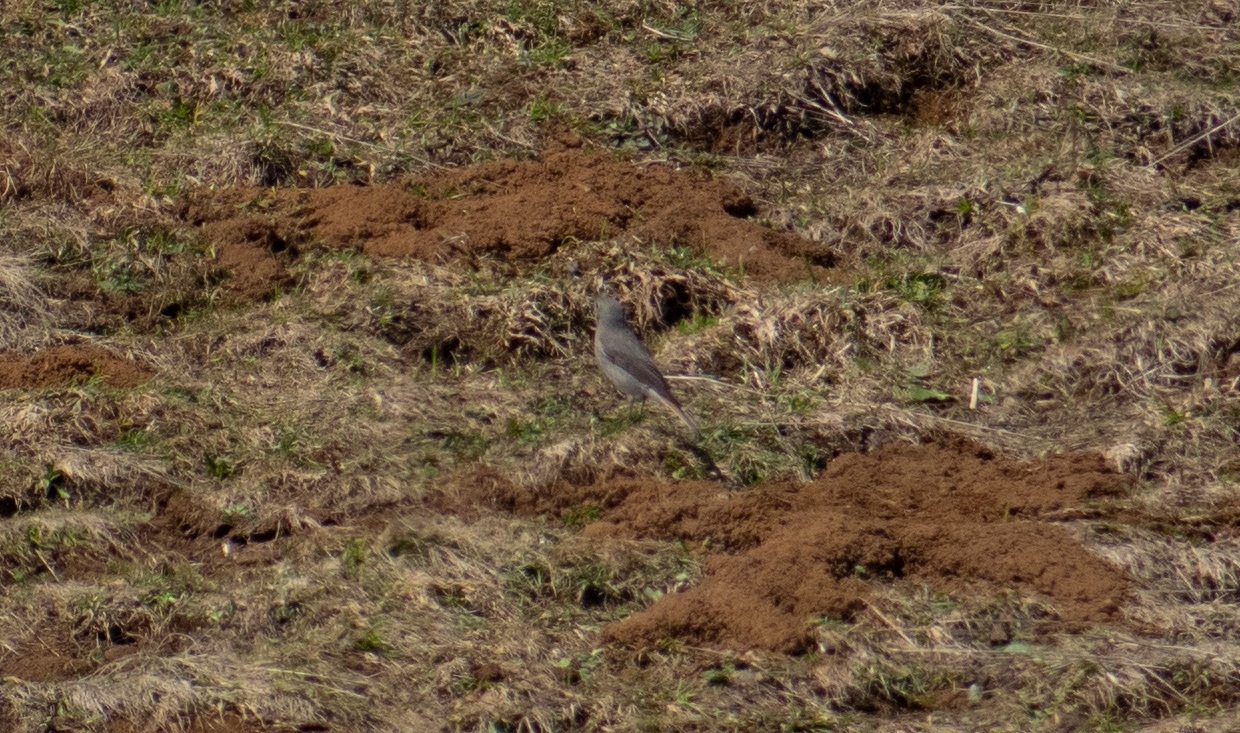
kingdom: Animalia
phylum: Chordata
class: Aves
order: Passeriformes
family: Muscicapidae
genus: Phoenicurus
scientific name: Phoenicurus ochruros
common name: Black redstart
